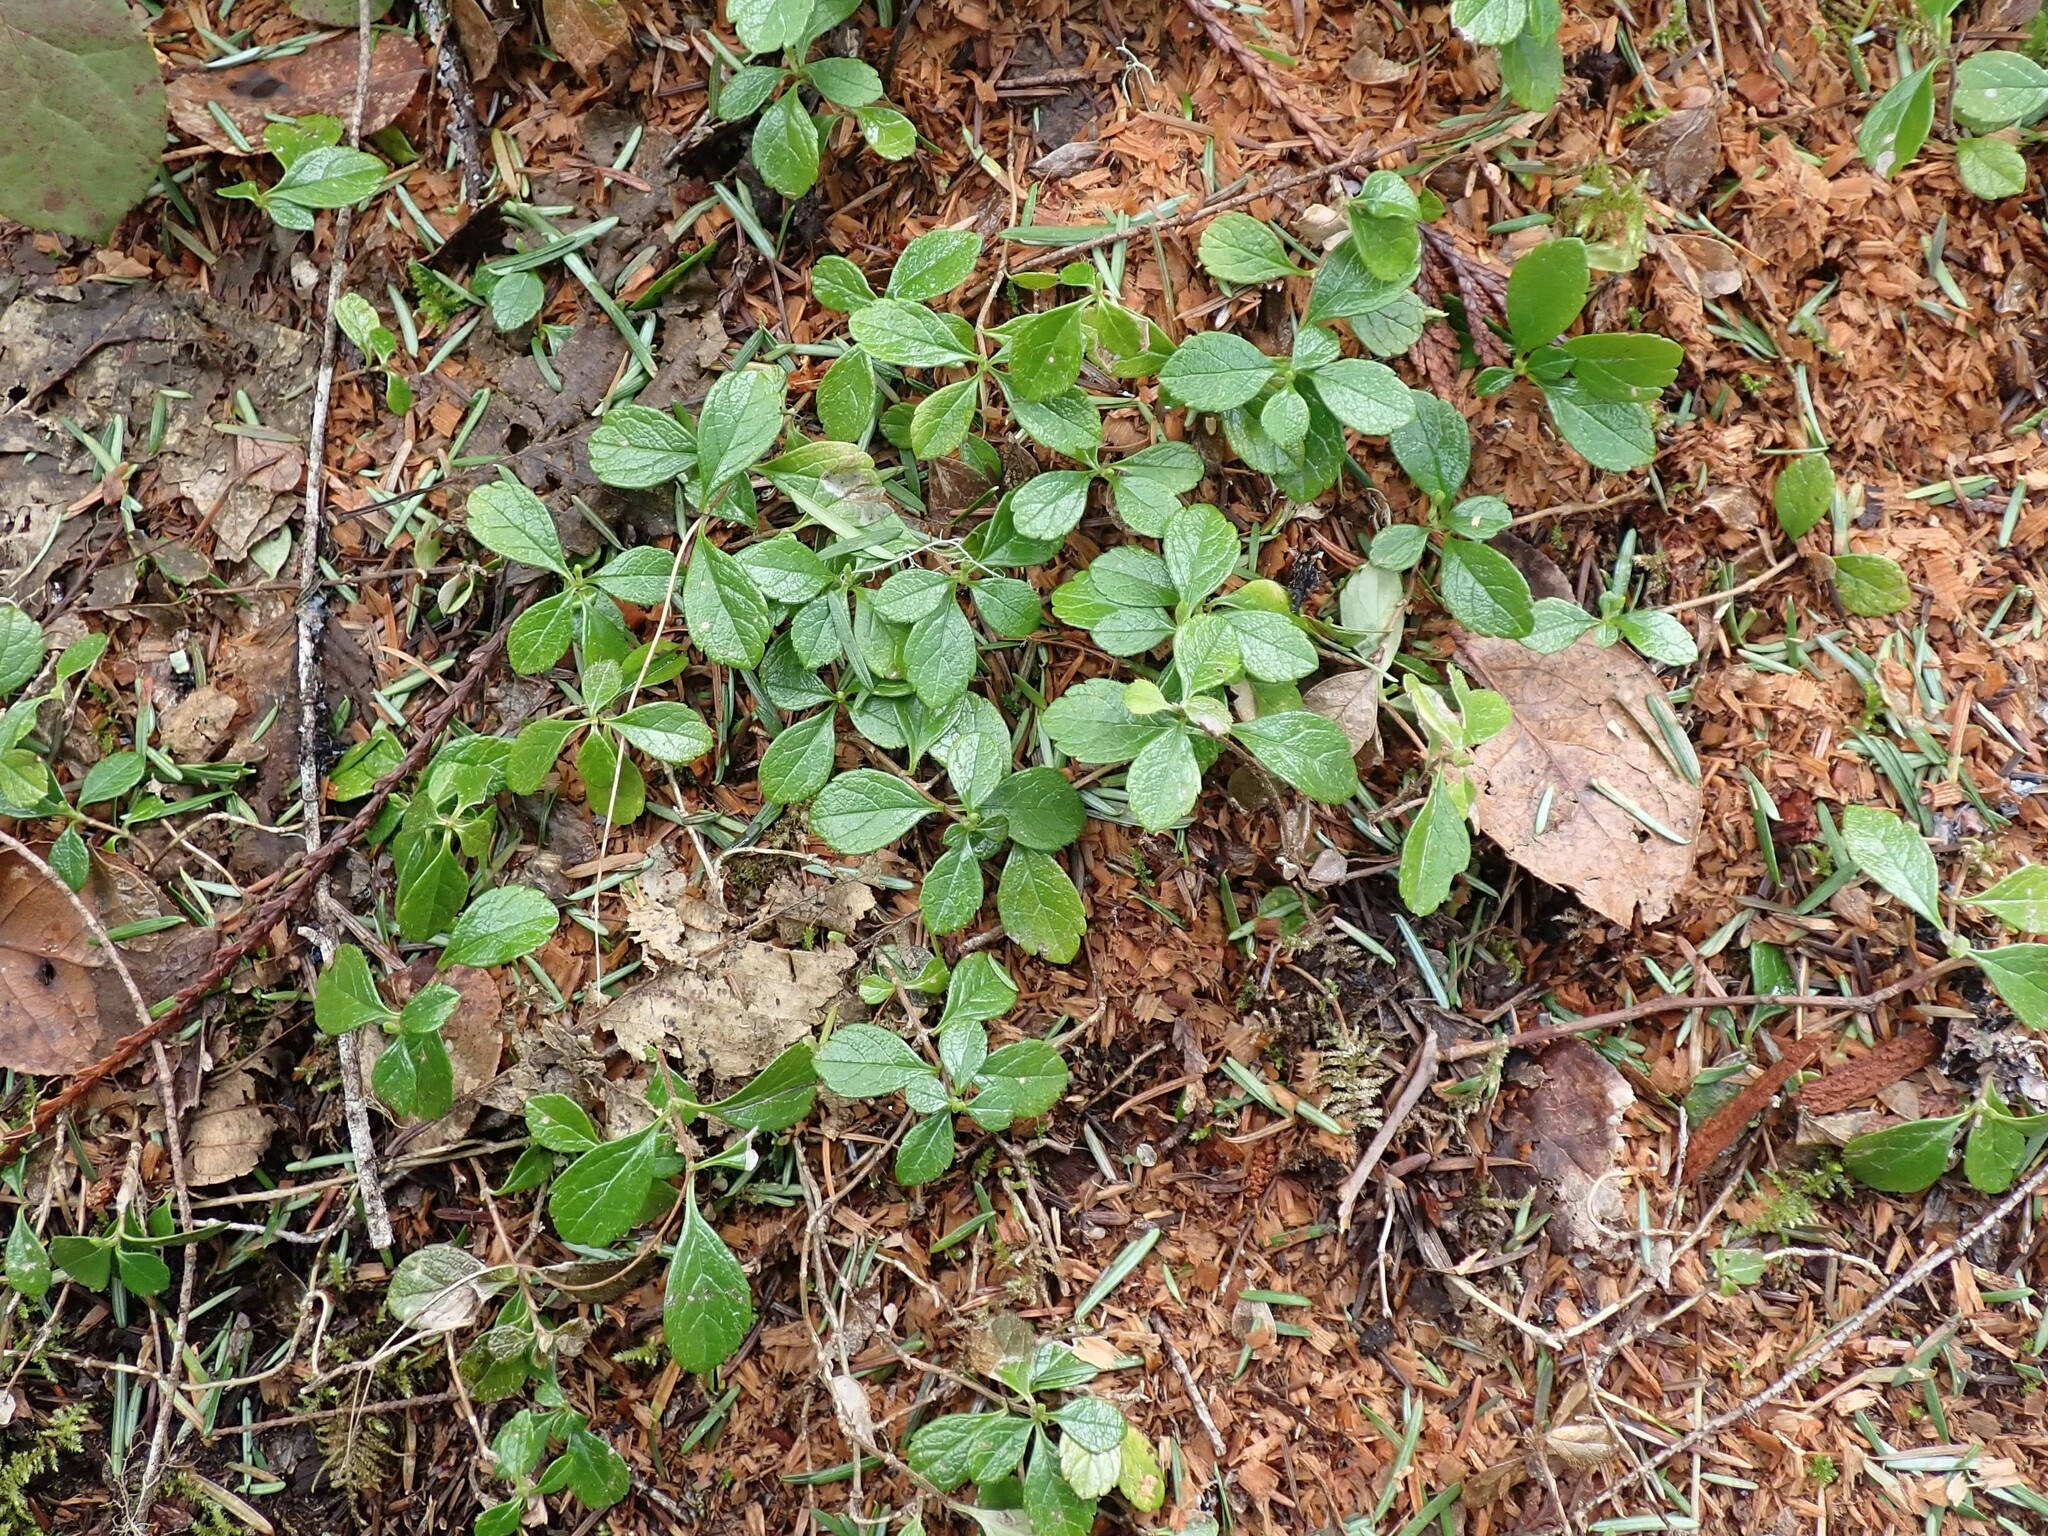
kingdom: Plantae
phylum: Tracheophyta
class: Magnoliopsida
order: Dipsacales
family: Caprifoliaceae
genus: Linnaea
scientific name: Linnaea borealis
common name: Twinflower
